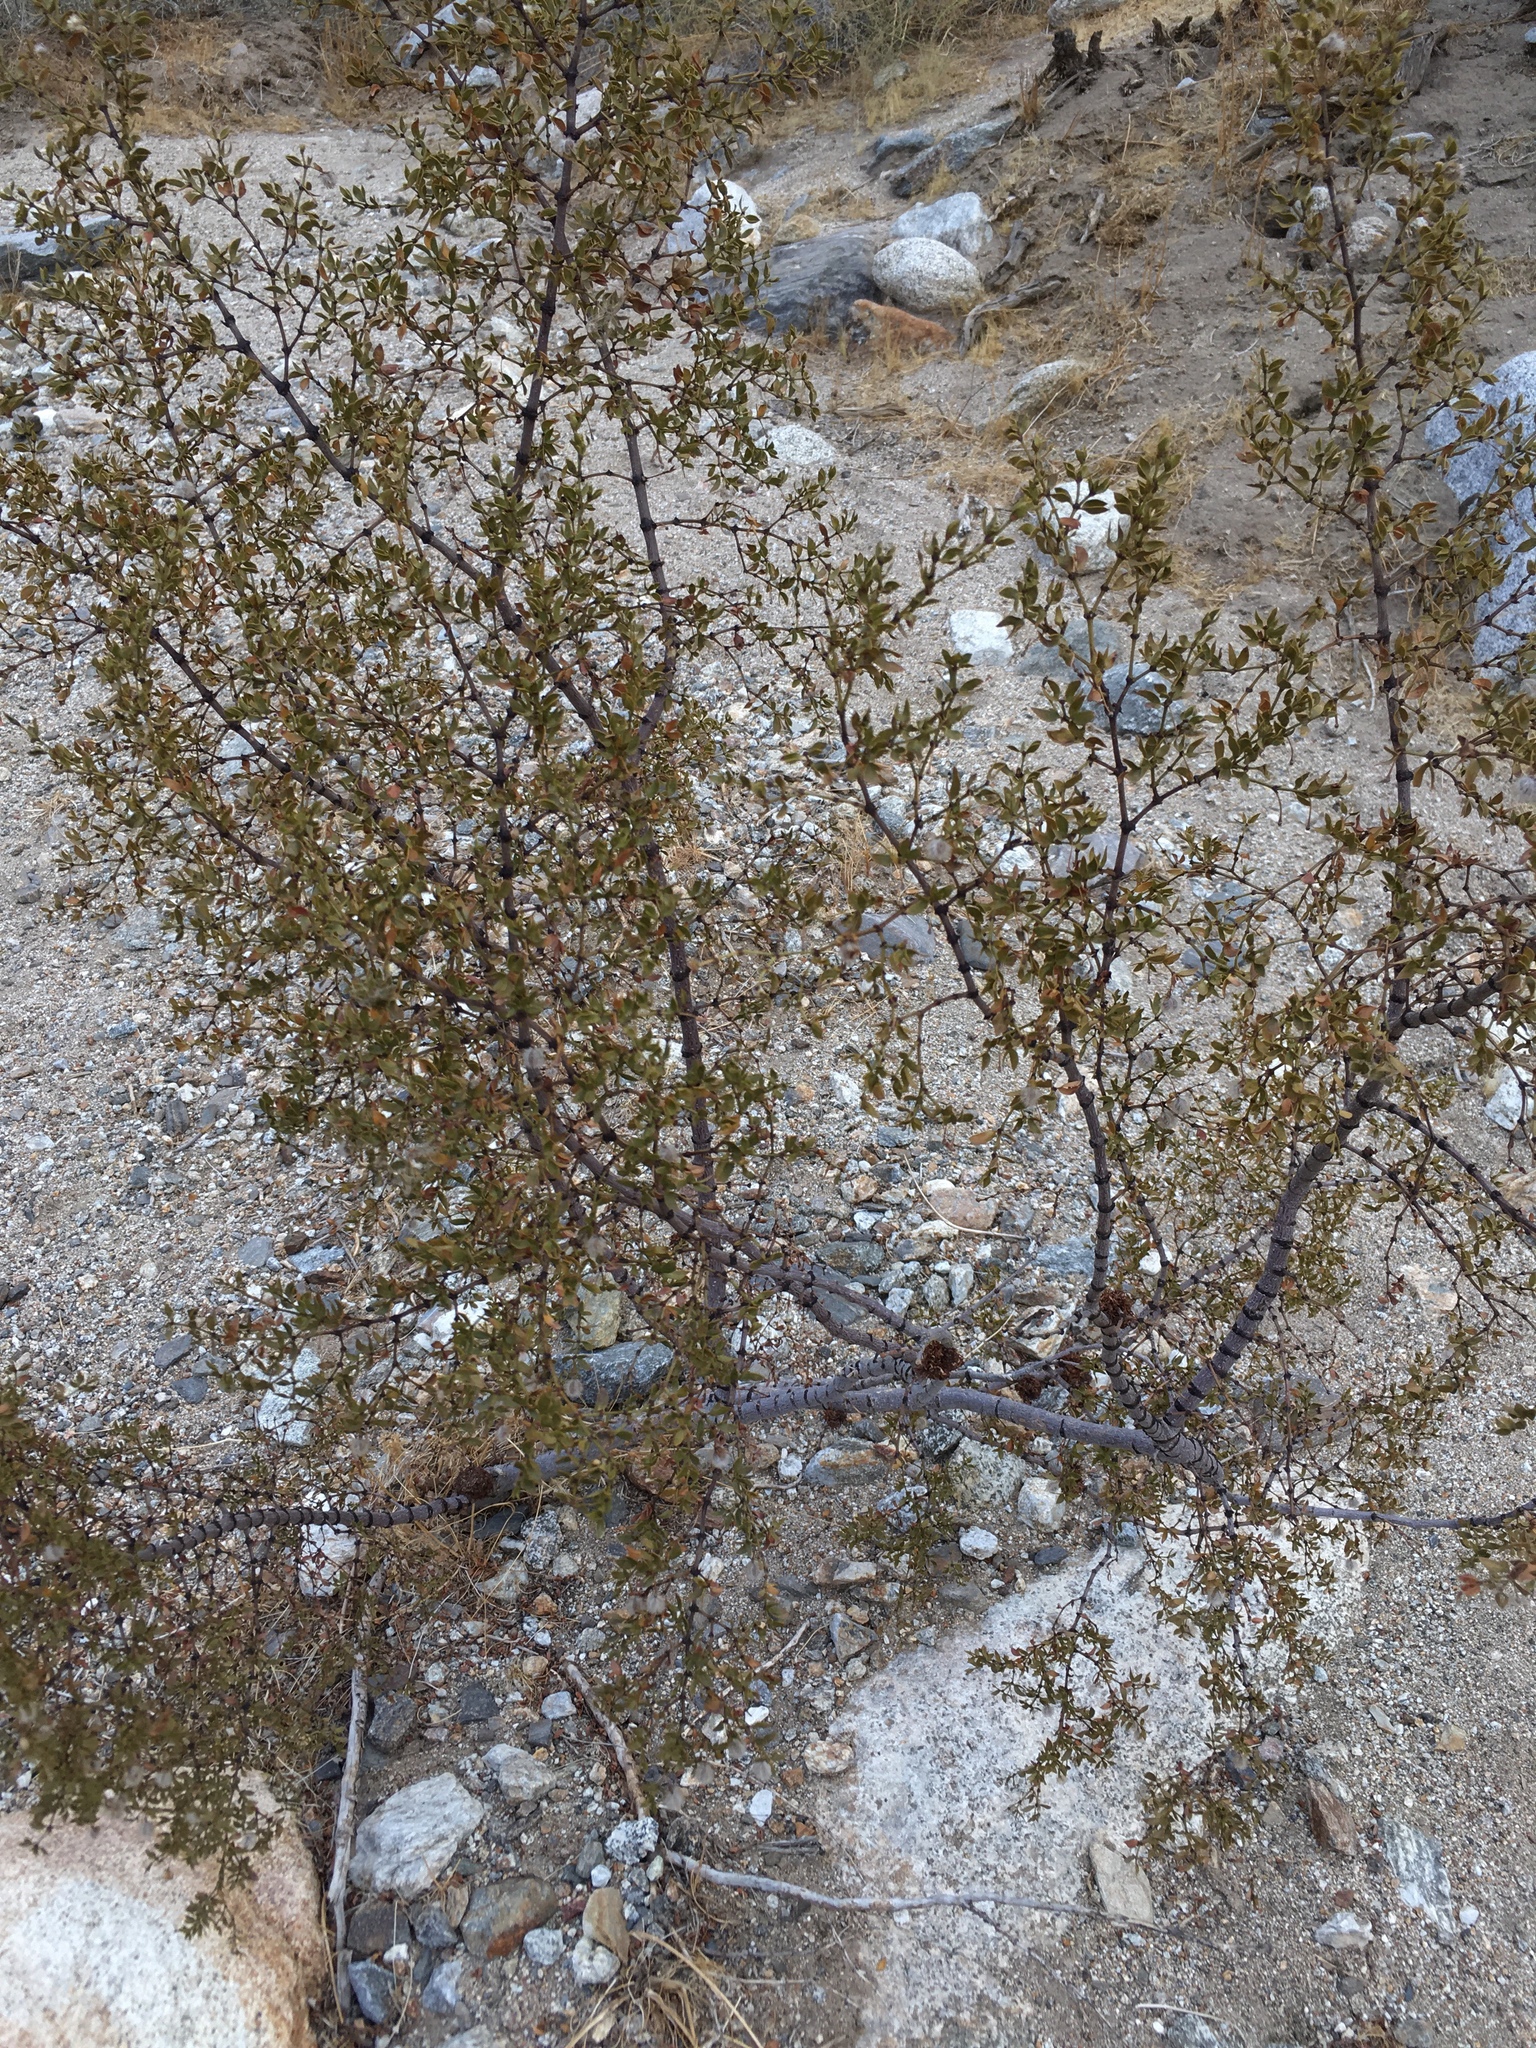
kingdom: Animalia
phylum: Arthropoda
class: Insecta
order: Diptera
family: Cecidomyiidae
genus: Asphondylia
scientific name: Asphondylia auripila
